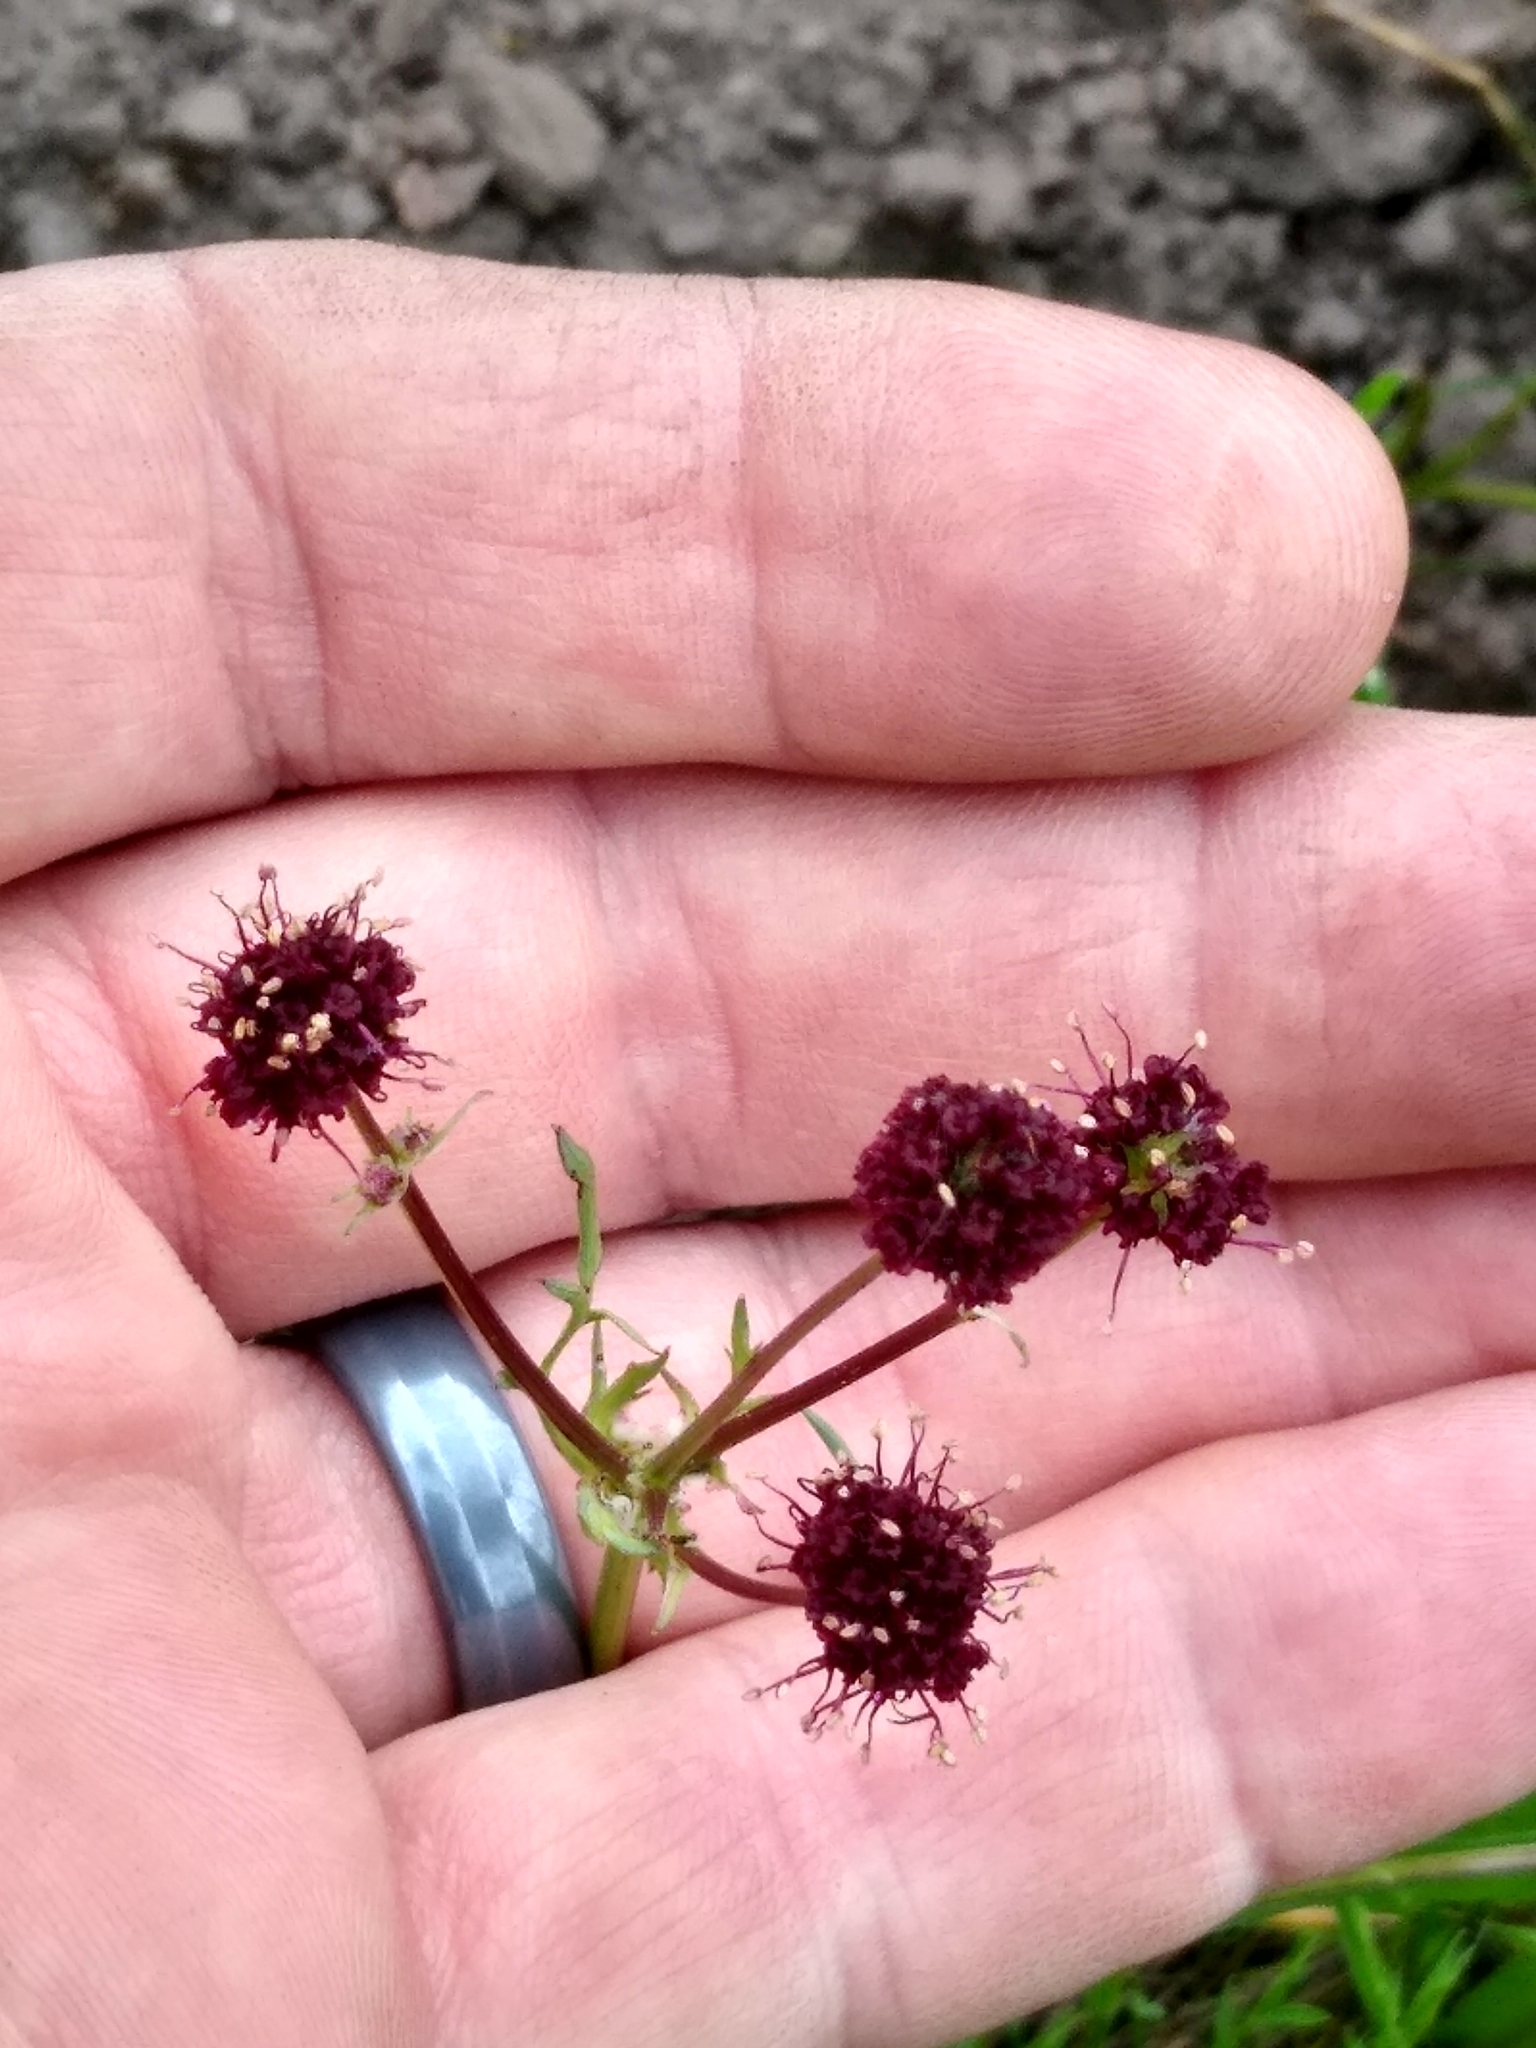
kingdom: Plantae
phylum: Tracheophyta
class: Magnoliopsida
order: Apiales
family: Apiaceae
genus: Sanicula
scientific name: Sanicula bipinnatifida
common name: Shoe-buttons
